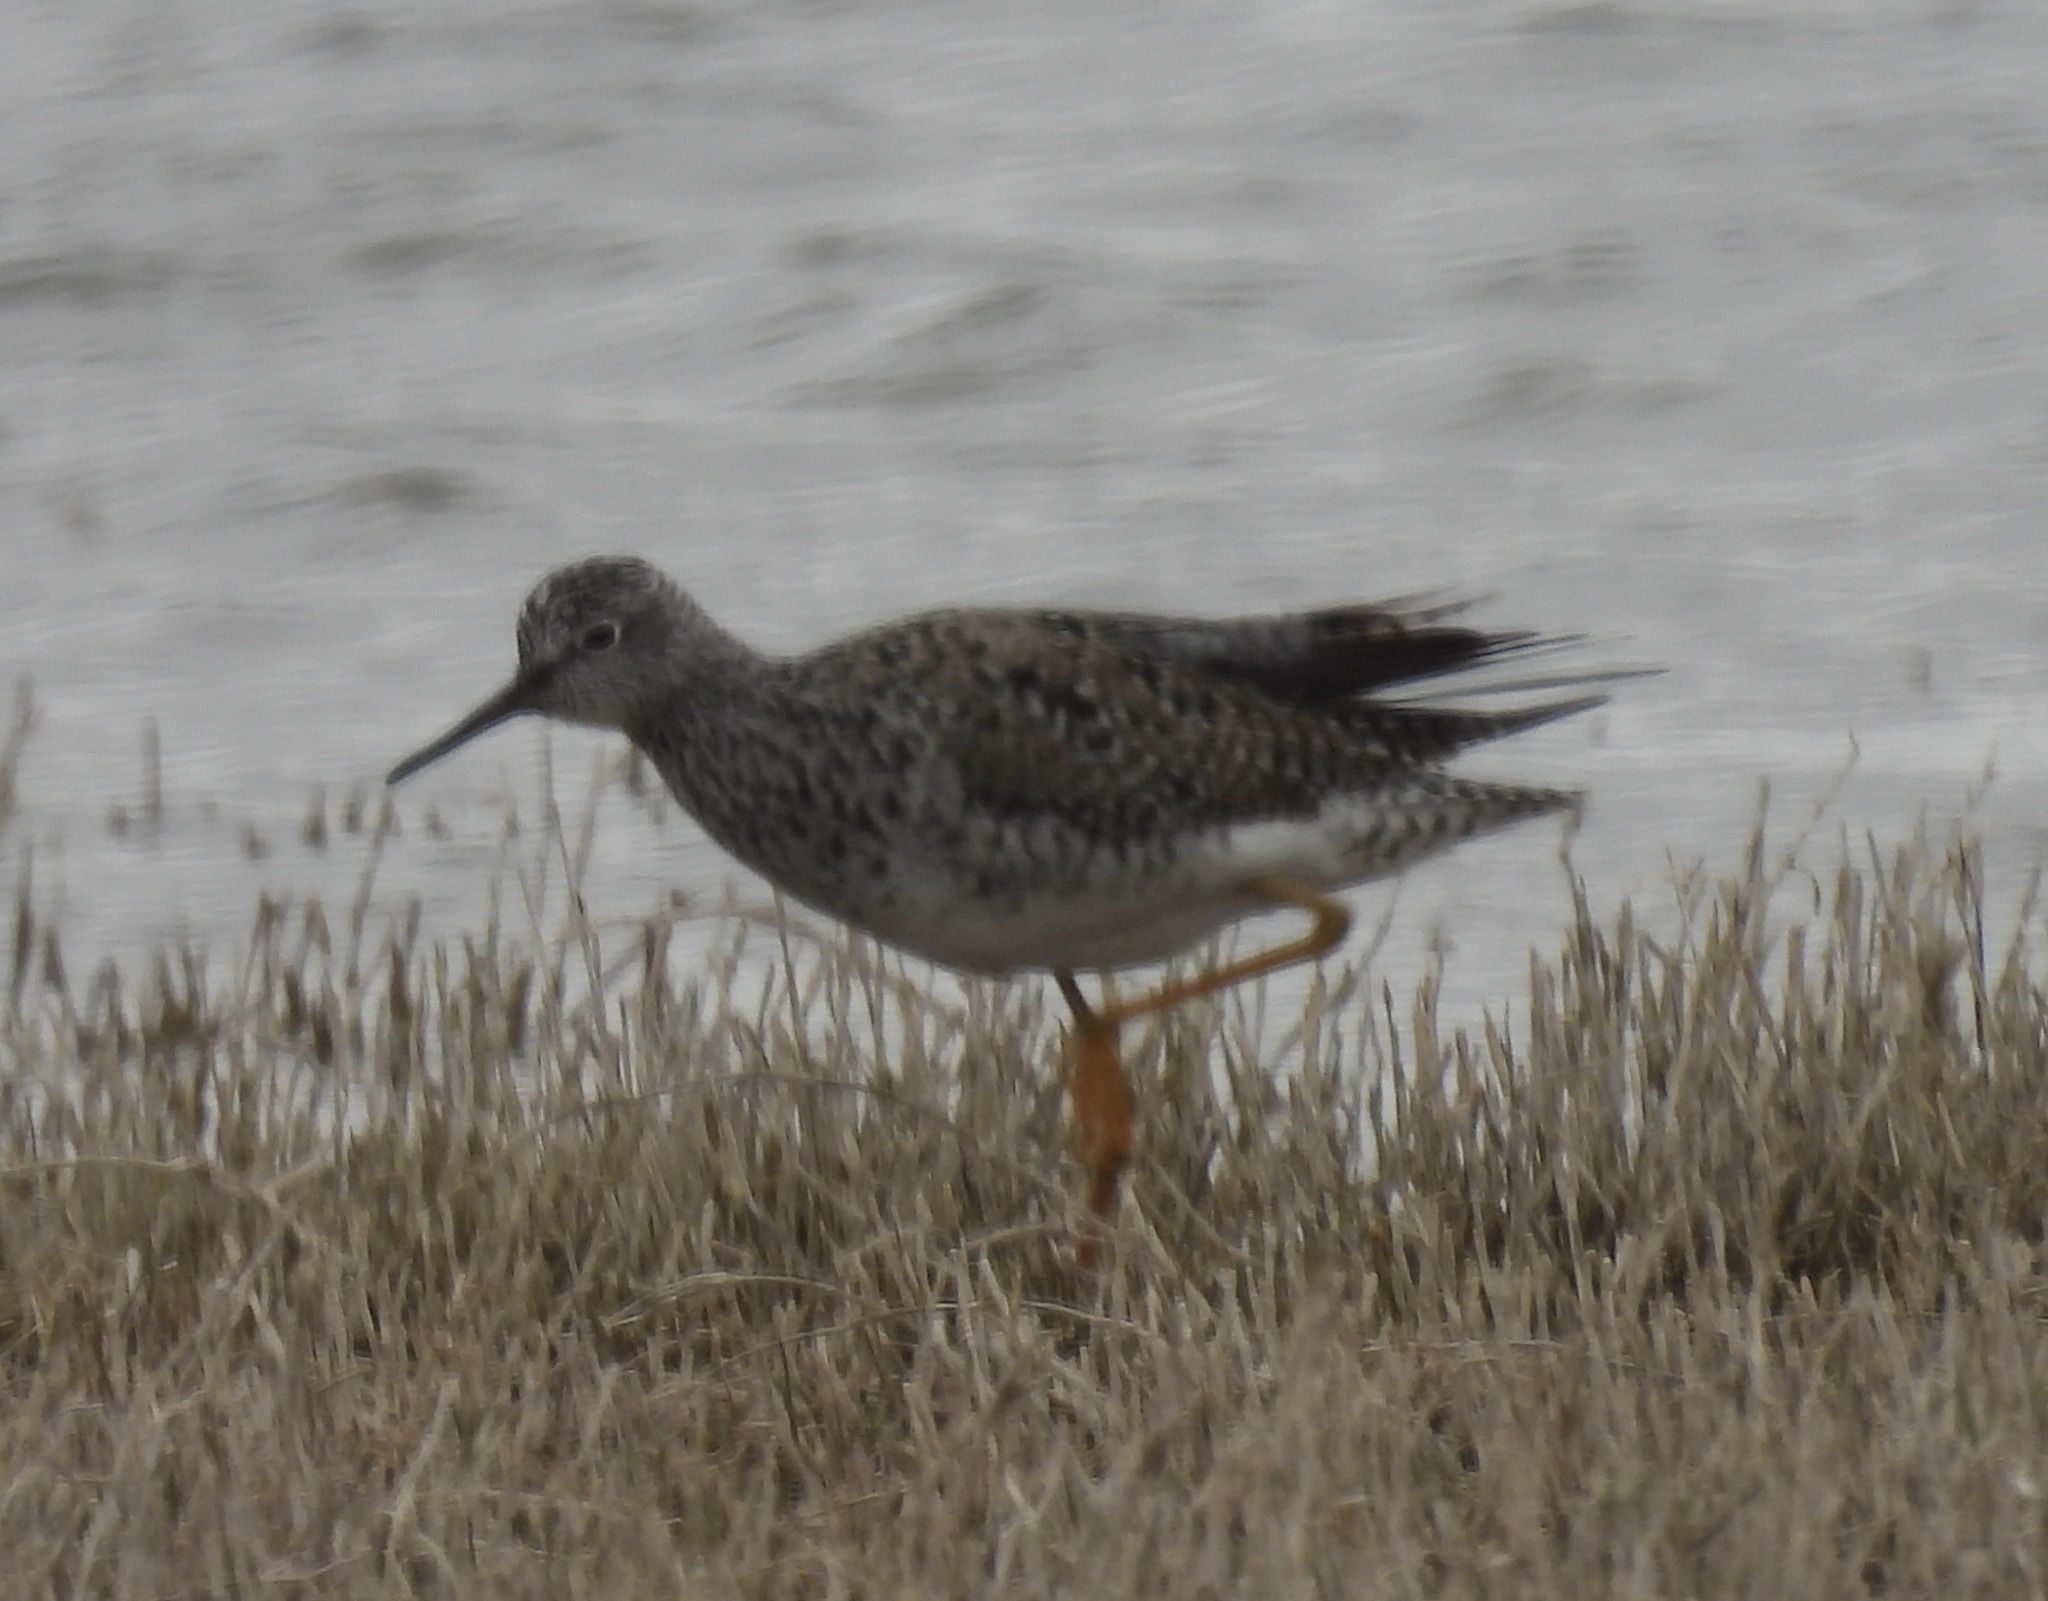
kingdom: Animalia
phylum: Chordata
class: Aves
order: Charadriiformes
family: Scolopacidae
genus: Tringa
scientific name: Tringa flavipes
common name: Lesser yellowlegs
